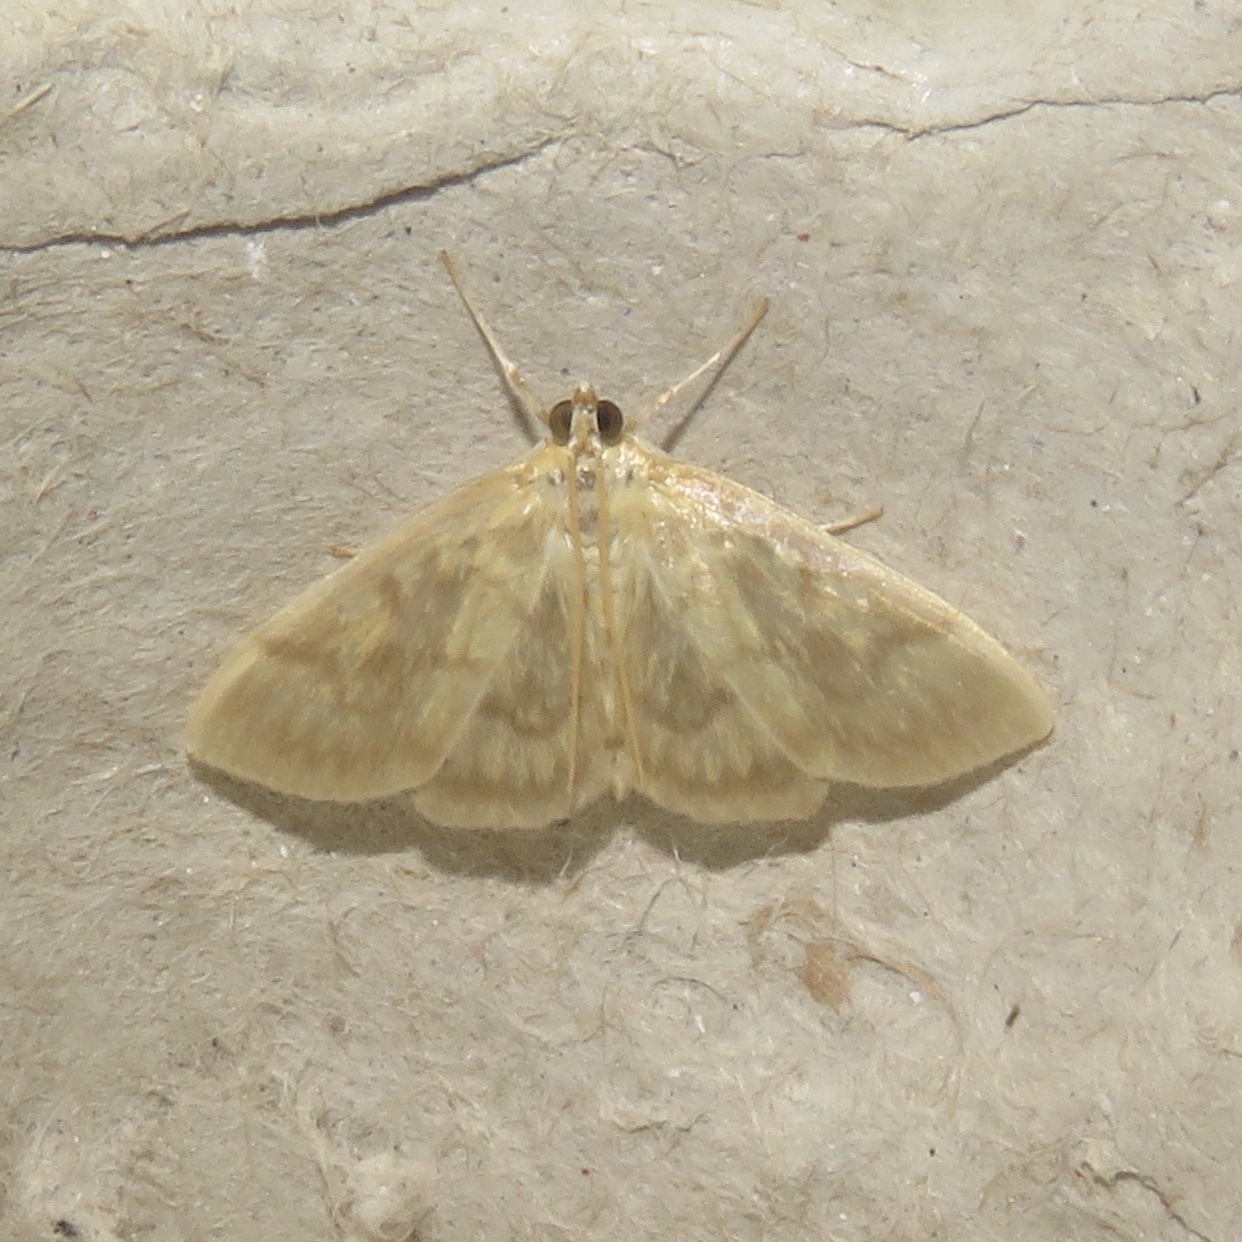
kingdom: Animalia
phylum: Arthropoda
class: Insecta
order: Lepidoptera
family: Crambidae
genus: Crocidophora
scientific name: Crocidophora serratissimalis
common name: Saw-toothed crocidophora moth
